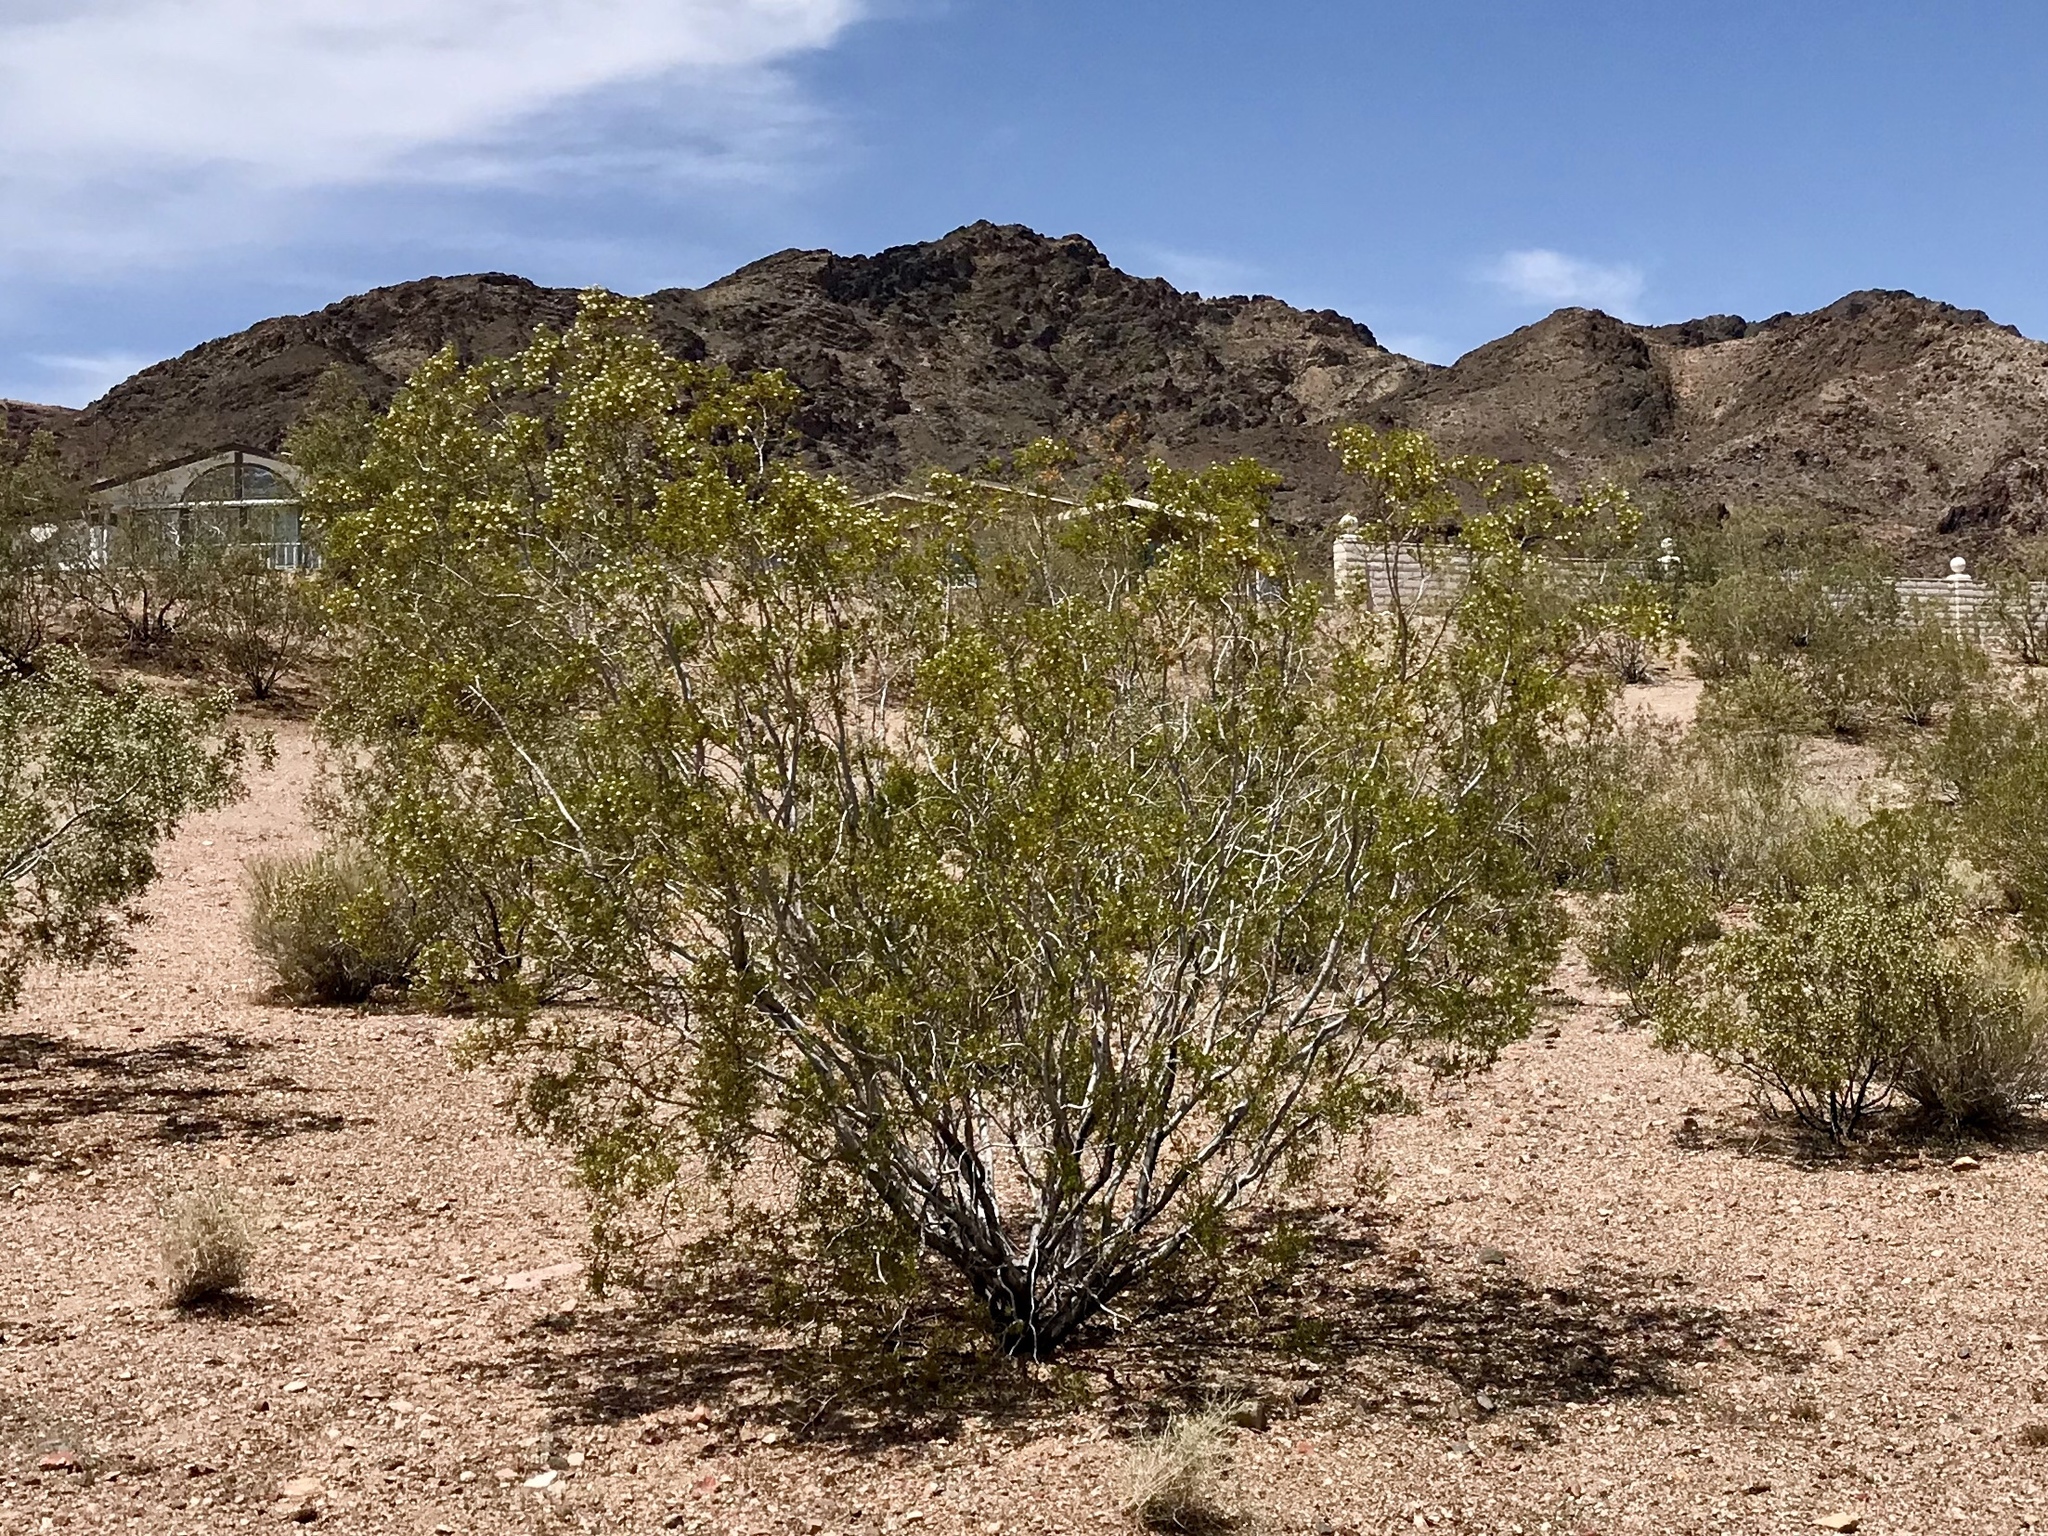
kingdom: Plantae
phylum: Tracheophyta
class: Magnoliopsida
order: Zygophyllales
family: Zygophyllaceae
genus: Larrea
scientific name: Larrea tridentata
